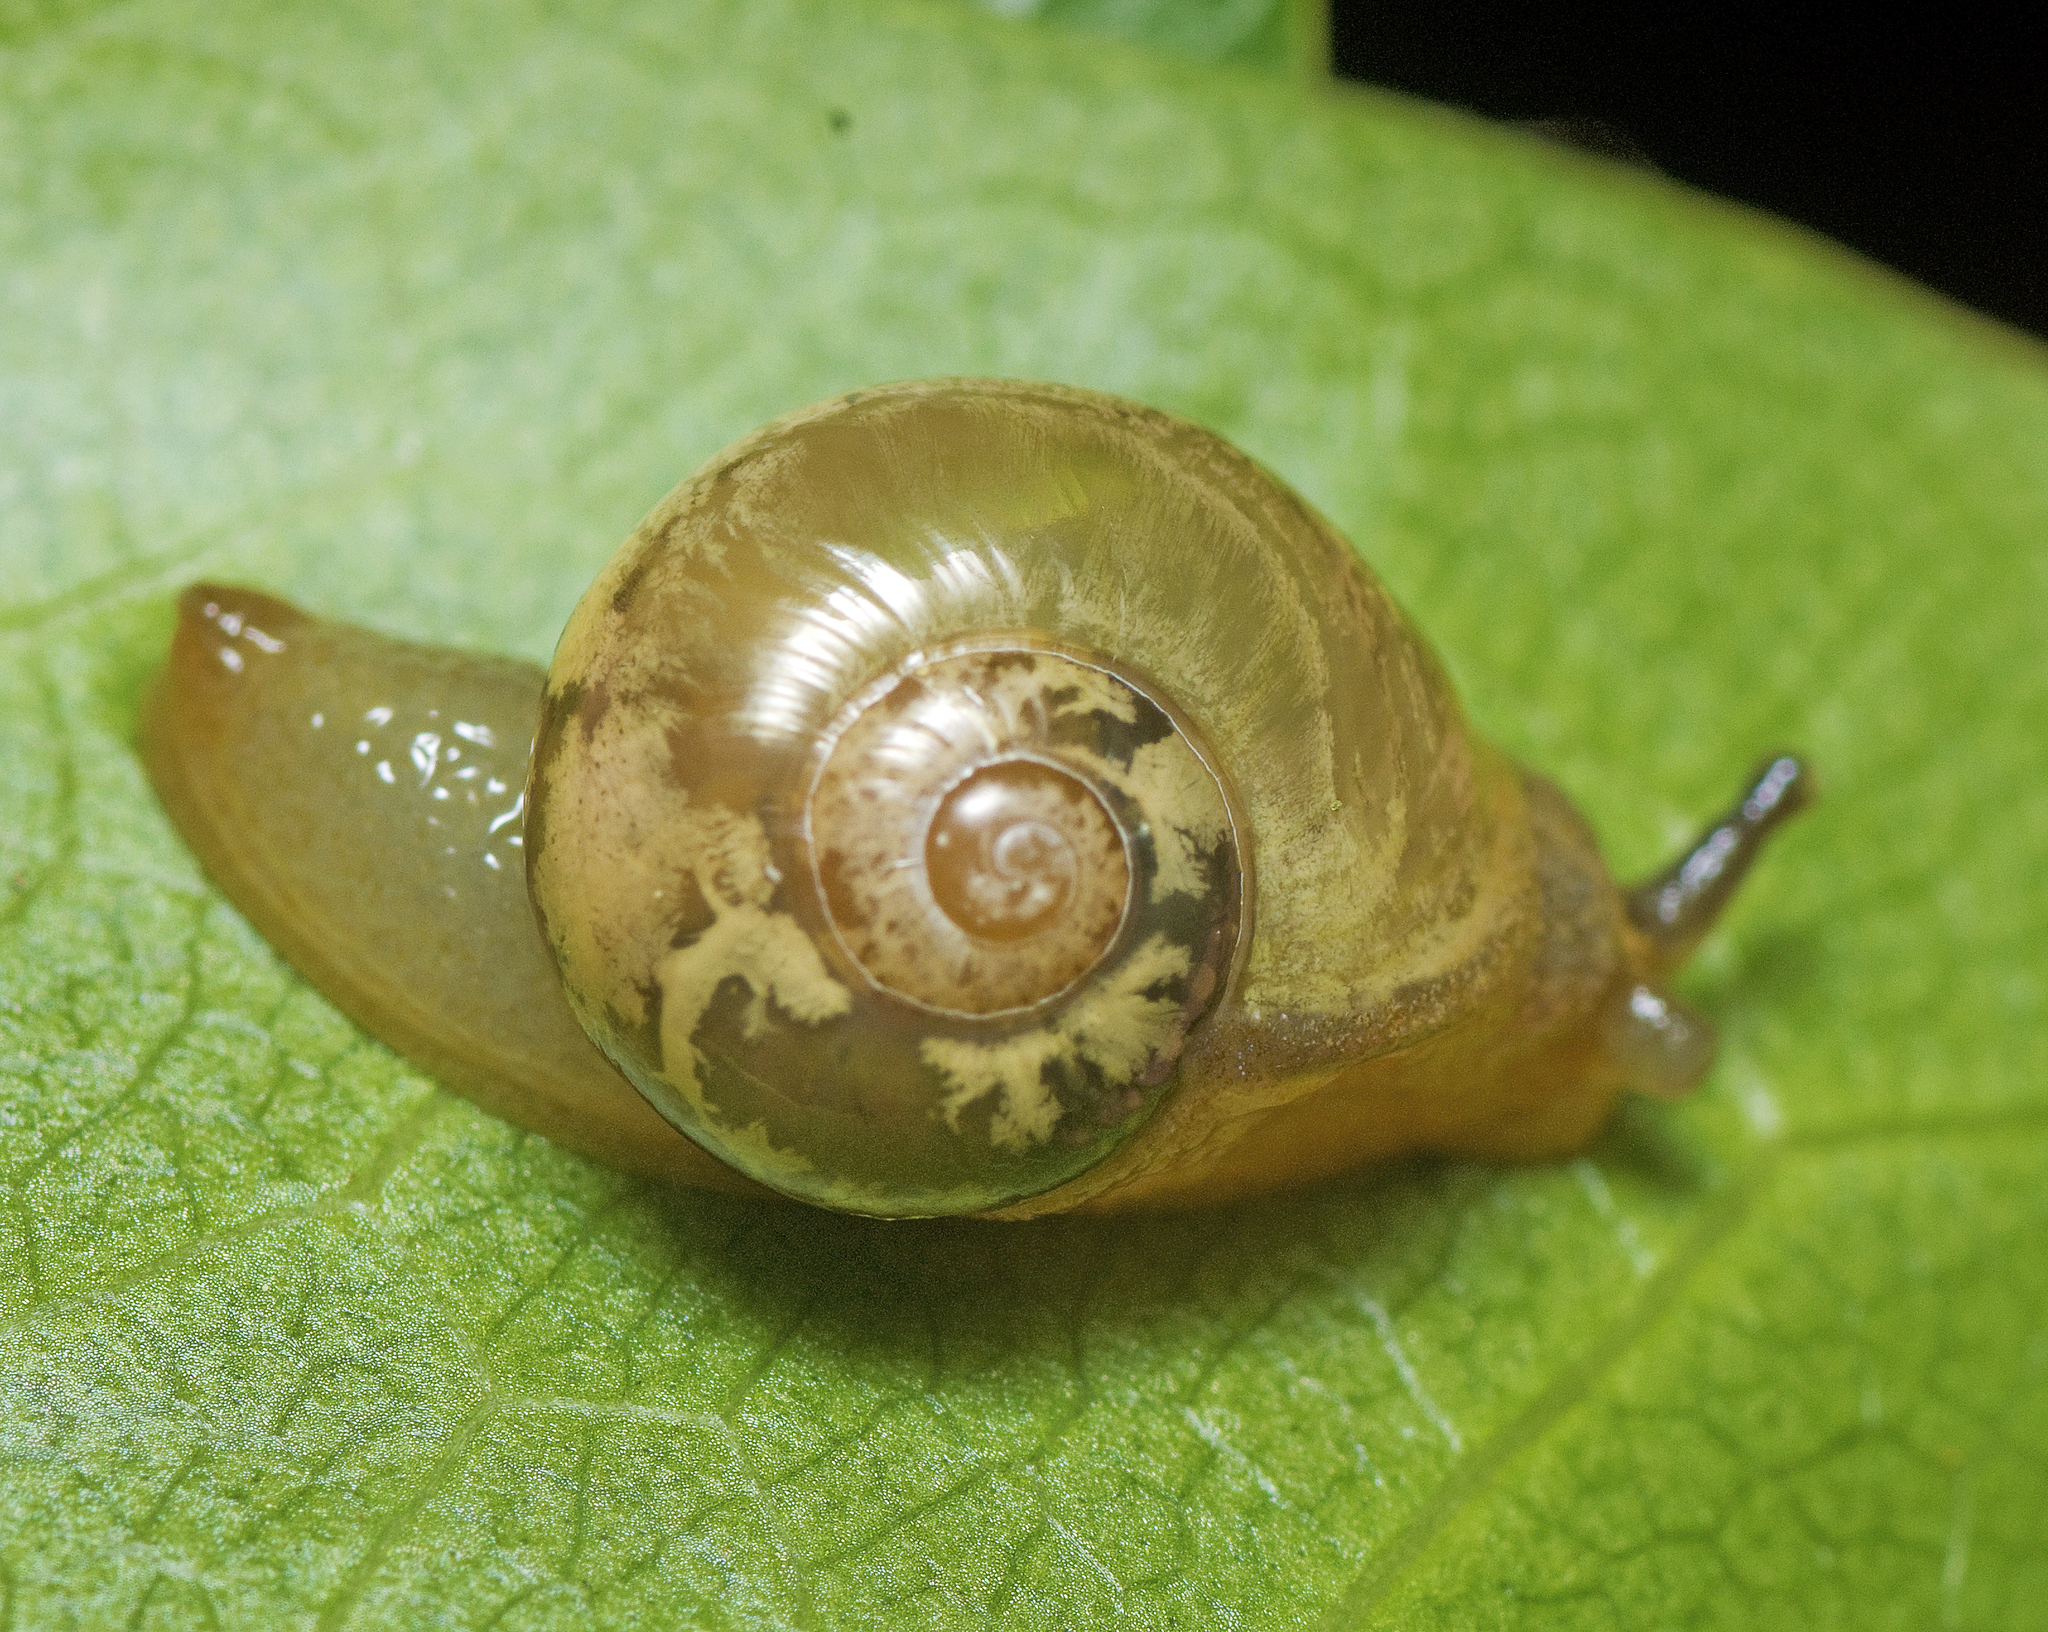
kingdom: Animalia
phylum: Mollusca
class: Gastropoda
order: Stylommatophora
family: Helicarionidae
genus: Mysticarion
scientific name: Mysticarion hyalinus
